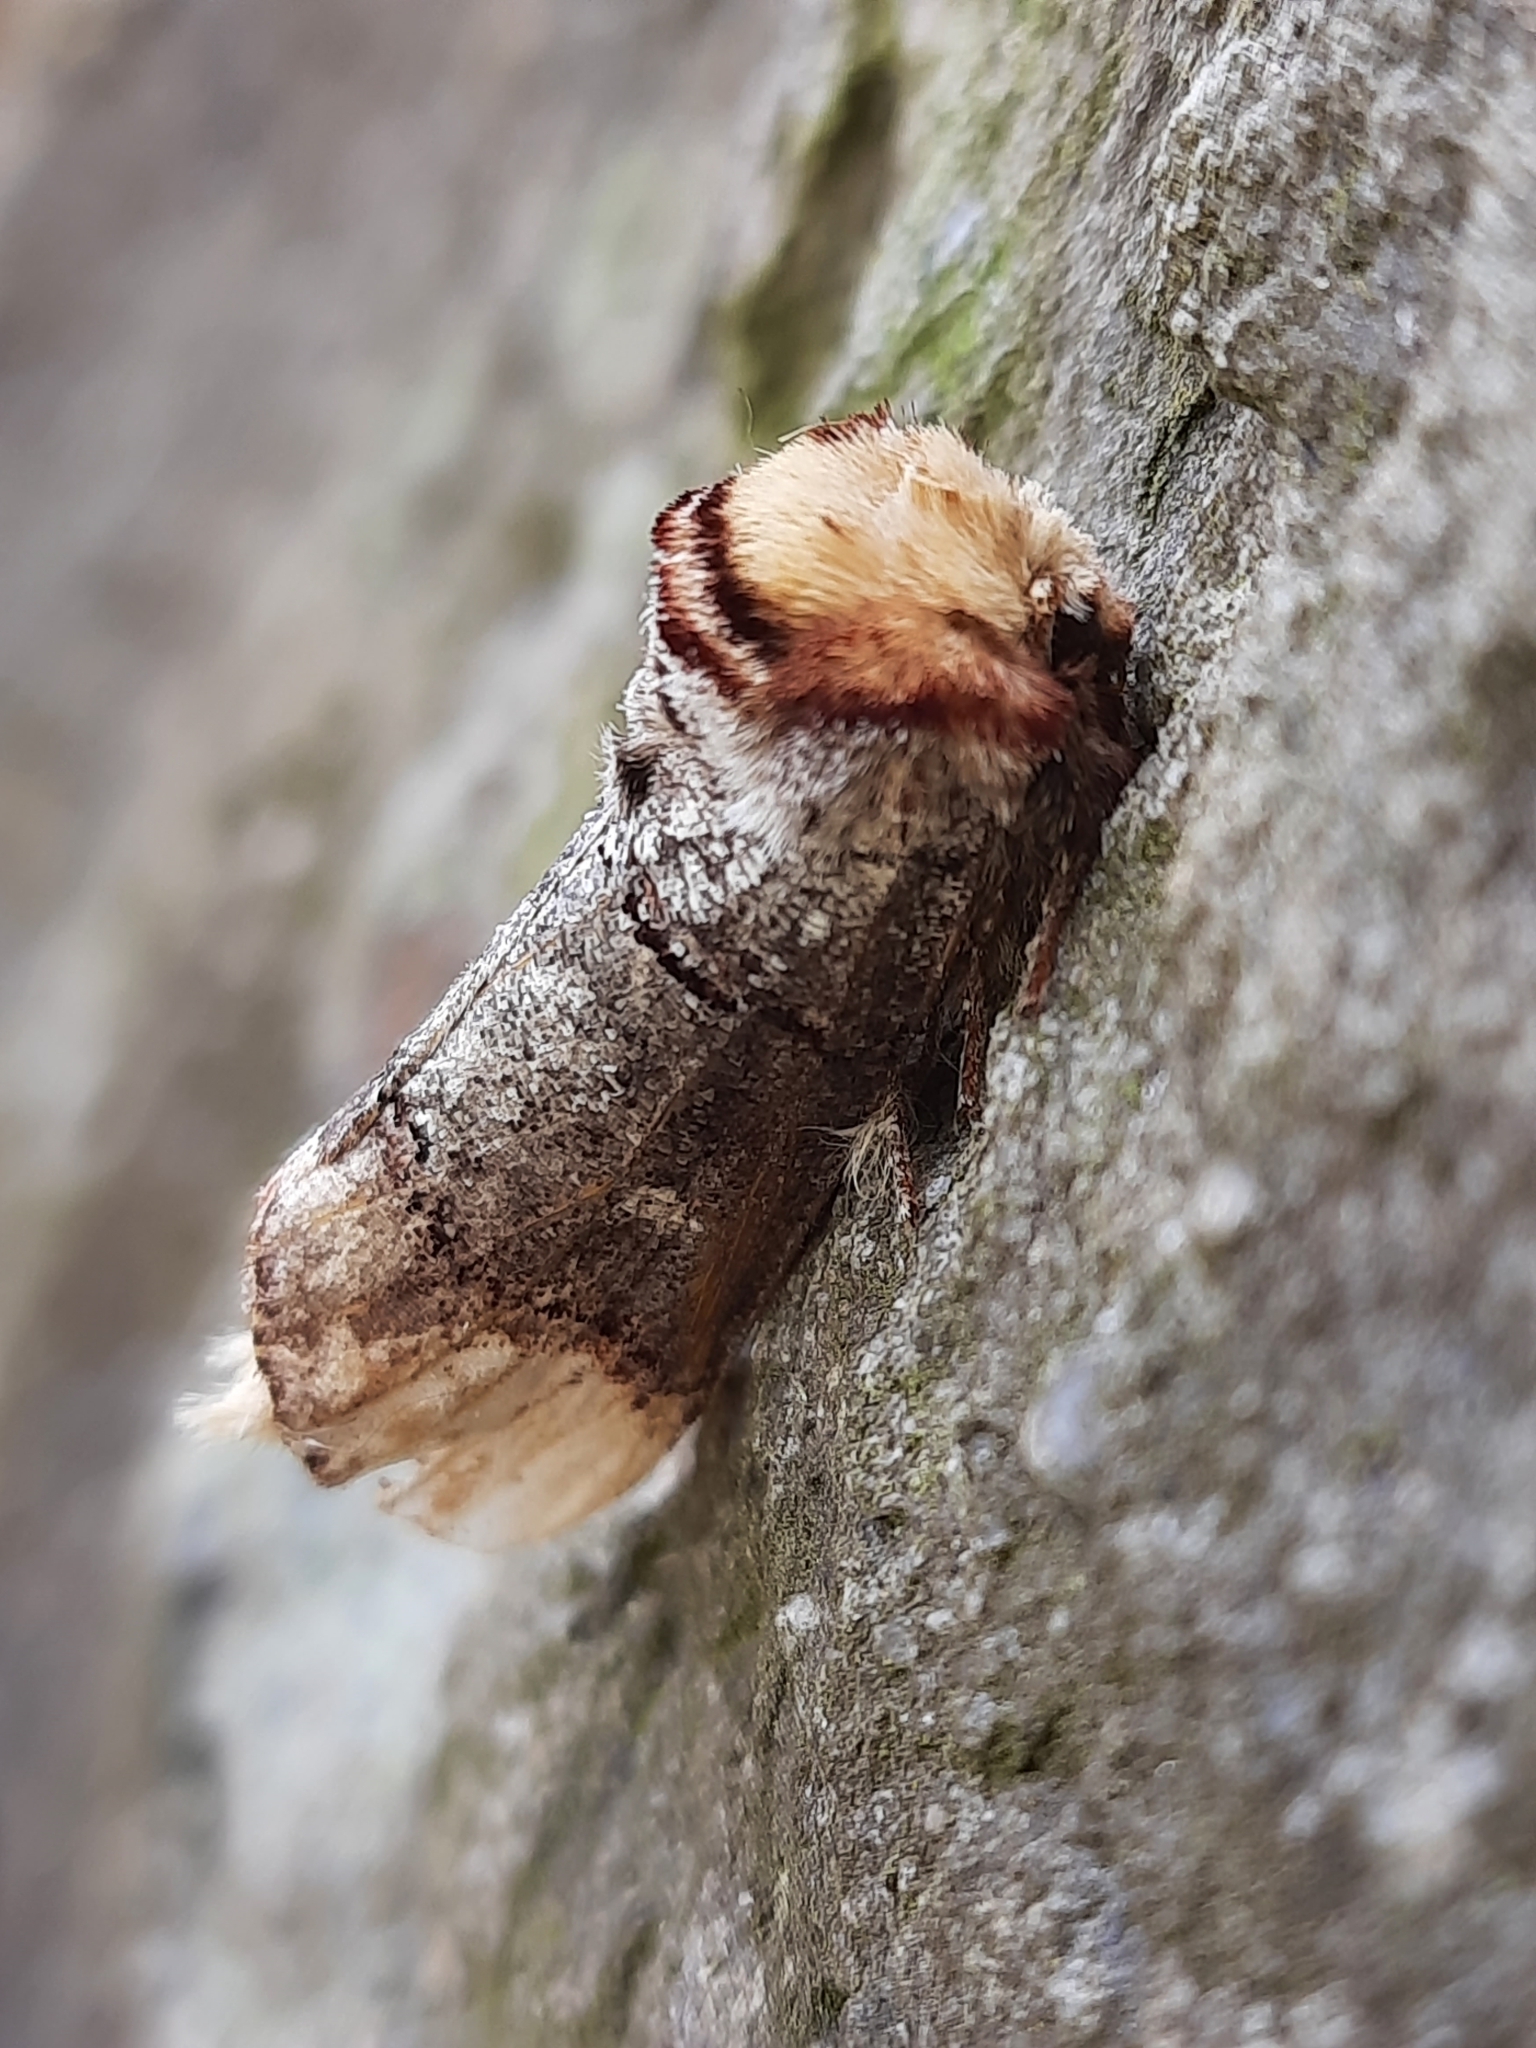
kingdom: Animalia
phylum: Arthropoda
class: Insecta
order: Lepidoptera
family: Notodontidae
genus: Phalera
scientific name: Phalera bucephala
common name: Buff-tip
